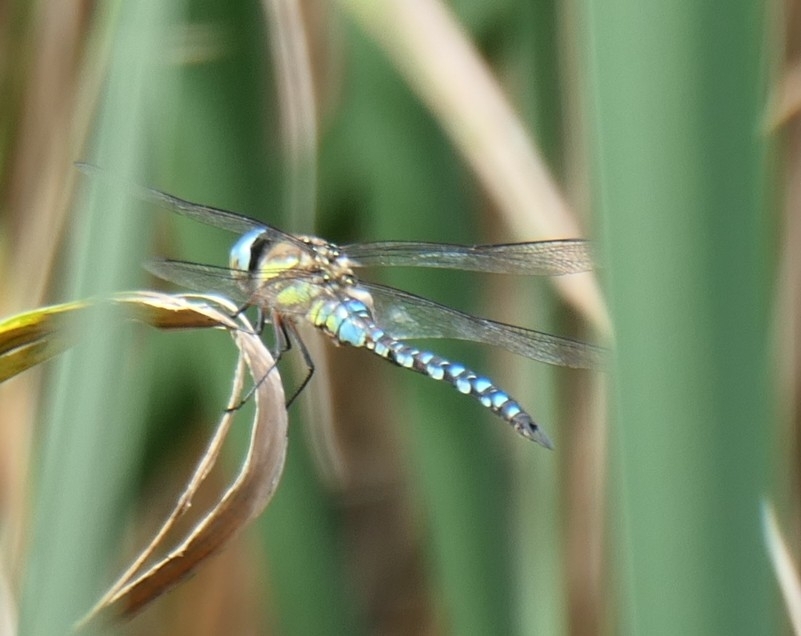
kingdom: Animalia
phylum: Arthropoda
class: Insecta
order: Odonata
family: Aeshnidae
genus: Aeshna
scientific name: Aeshna mixta
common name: Migrant hawker
